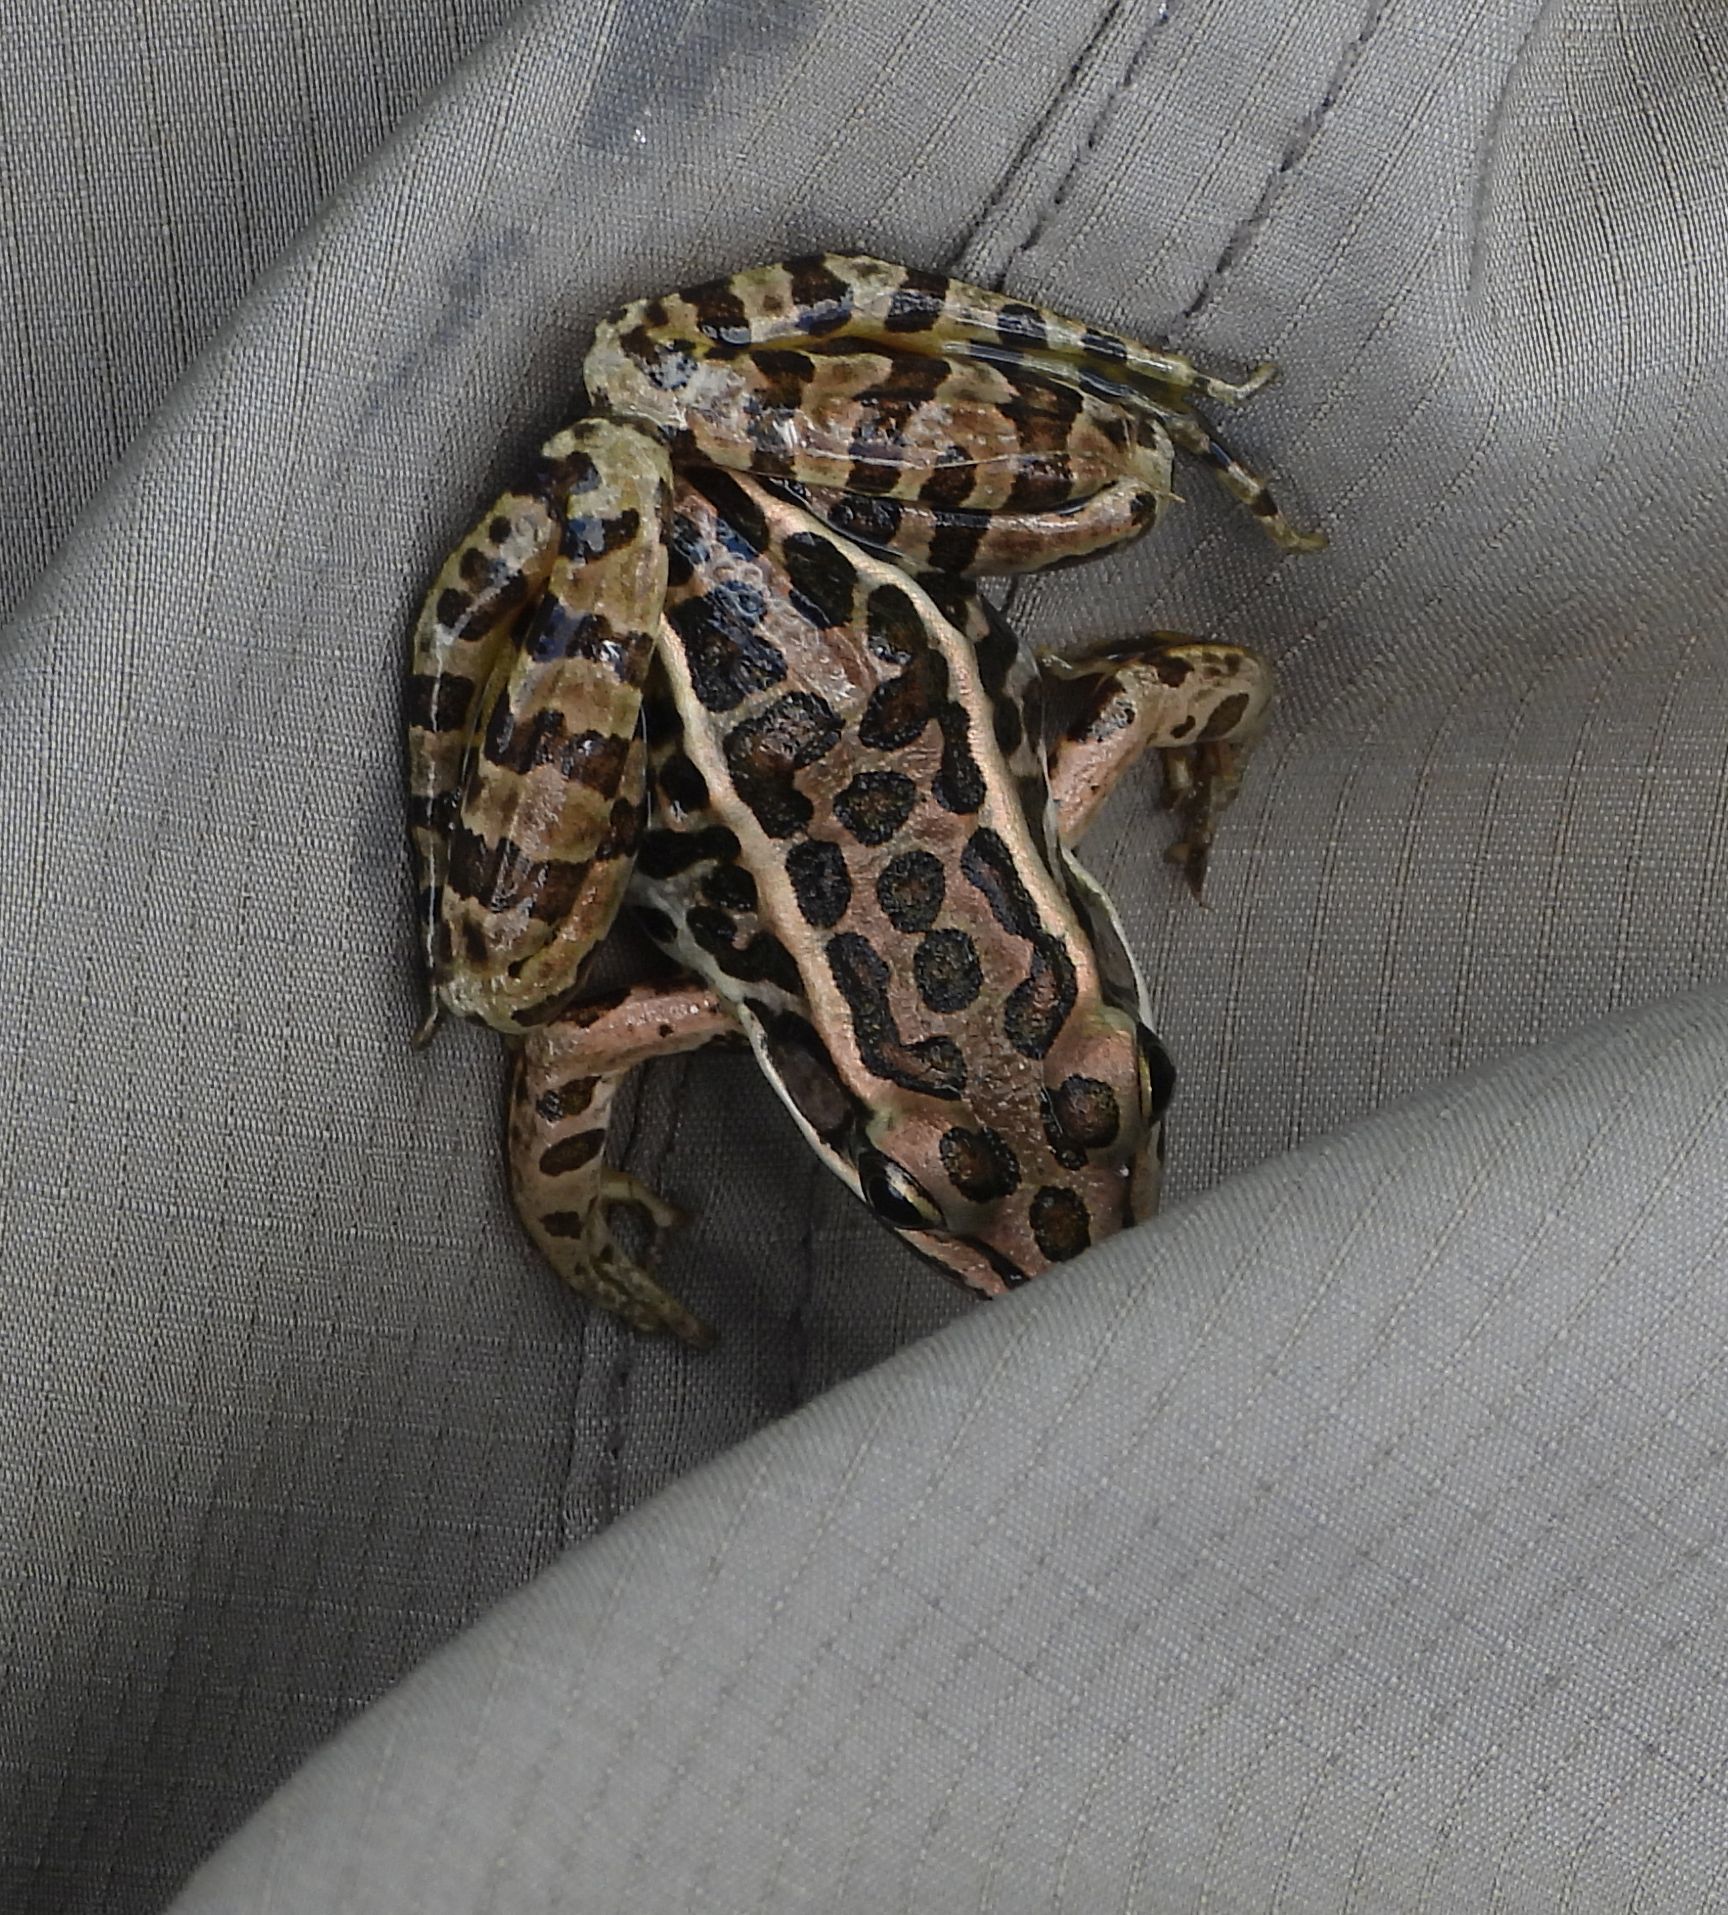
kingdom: Animalia
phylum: Chordata
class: Amphibia
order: Anura
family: Ranidae
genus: Lithobates
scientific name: Lithobates pipiens
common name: Northern leopard frog
